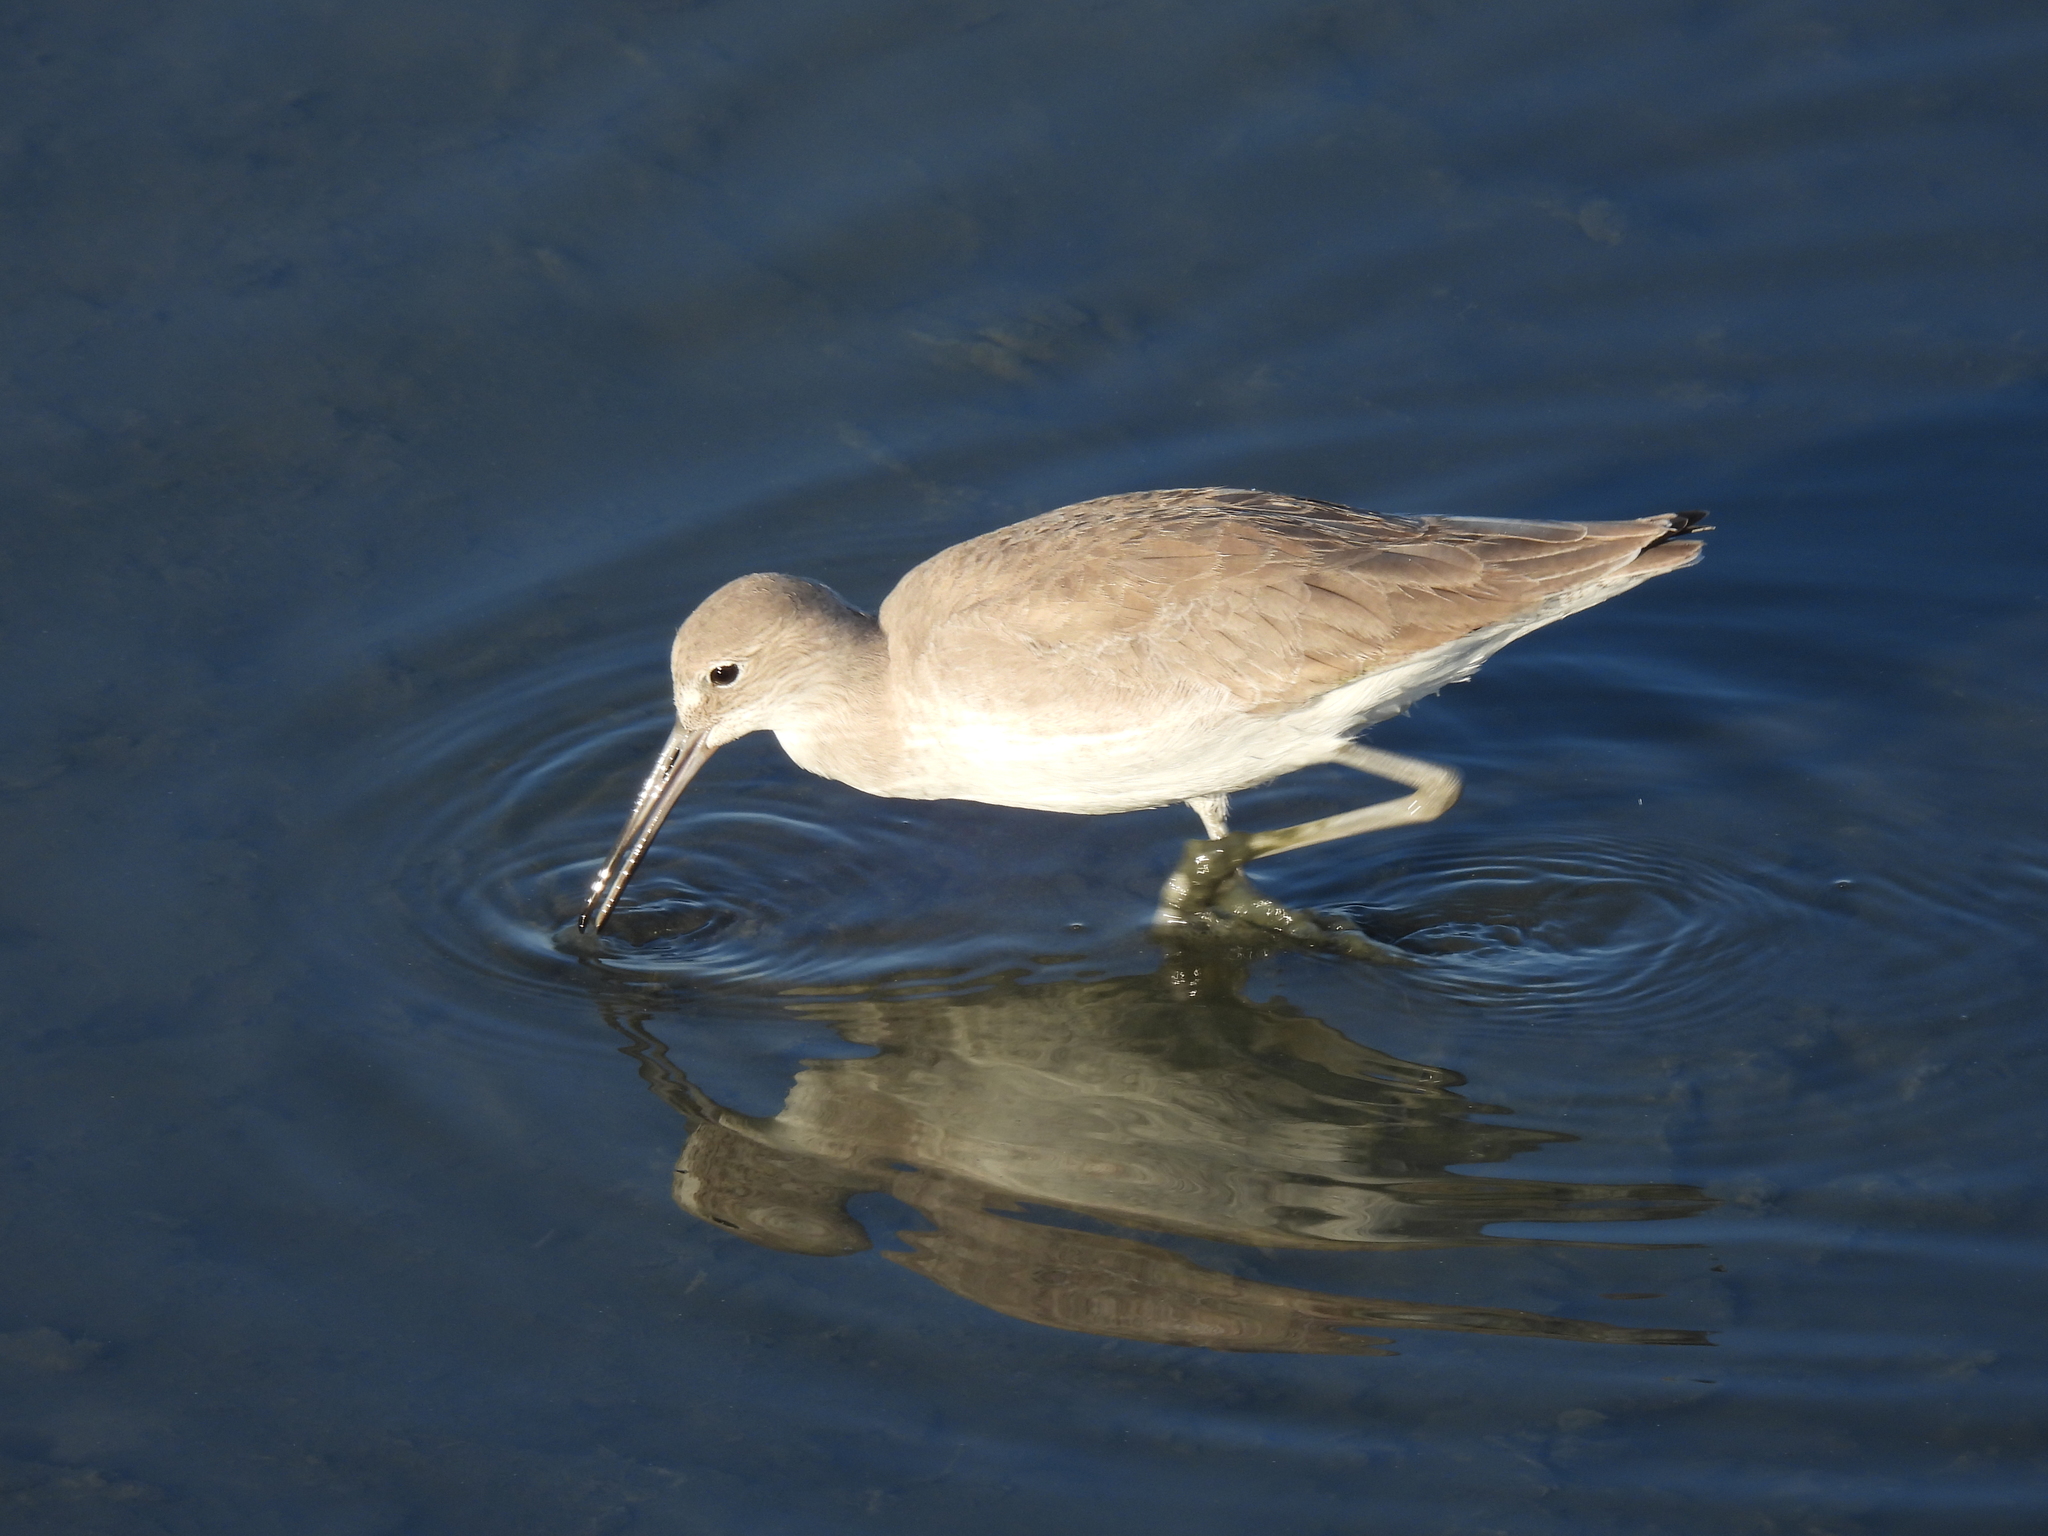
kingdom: Animalia
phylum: Chordata
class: Aves
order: Charadriiformes
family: Scolopacidae
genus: Tringa
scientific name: Tringa semipalmata
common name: Willet
